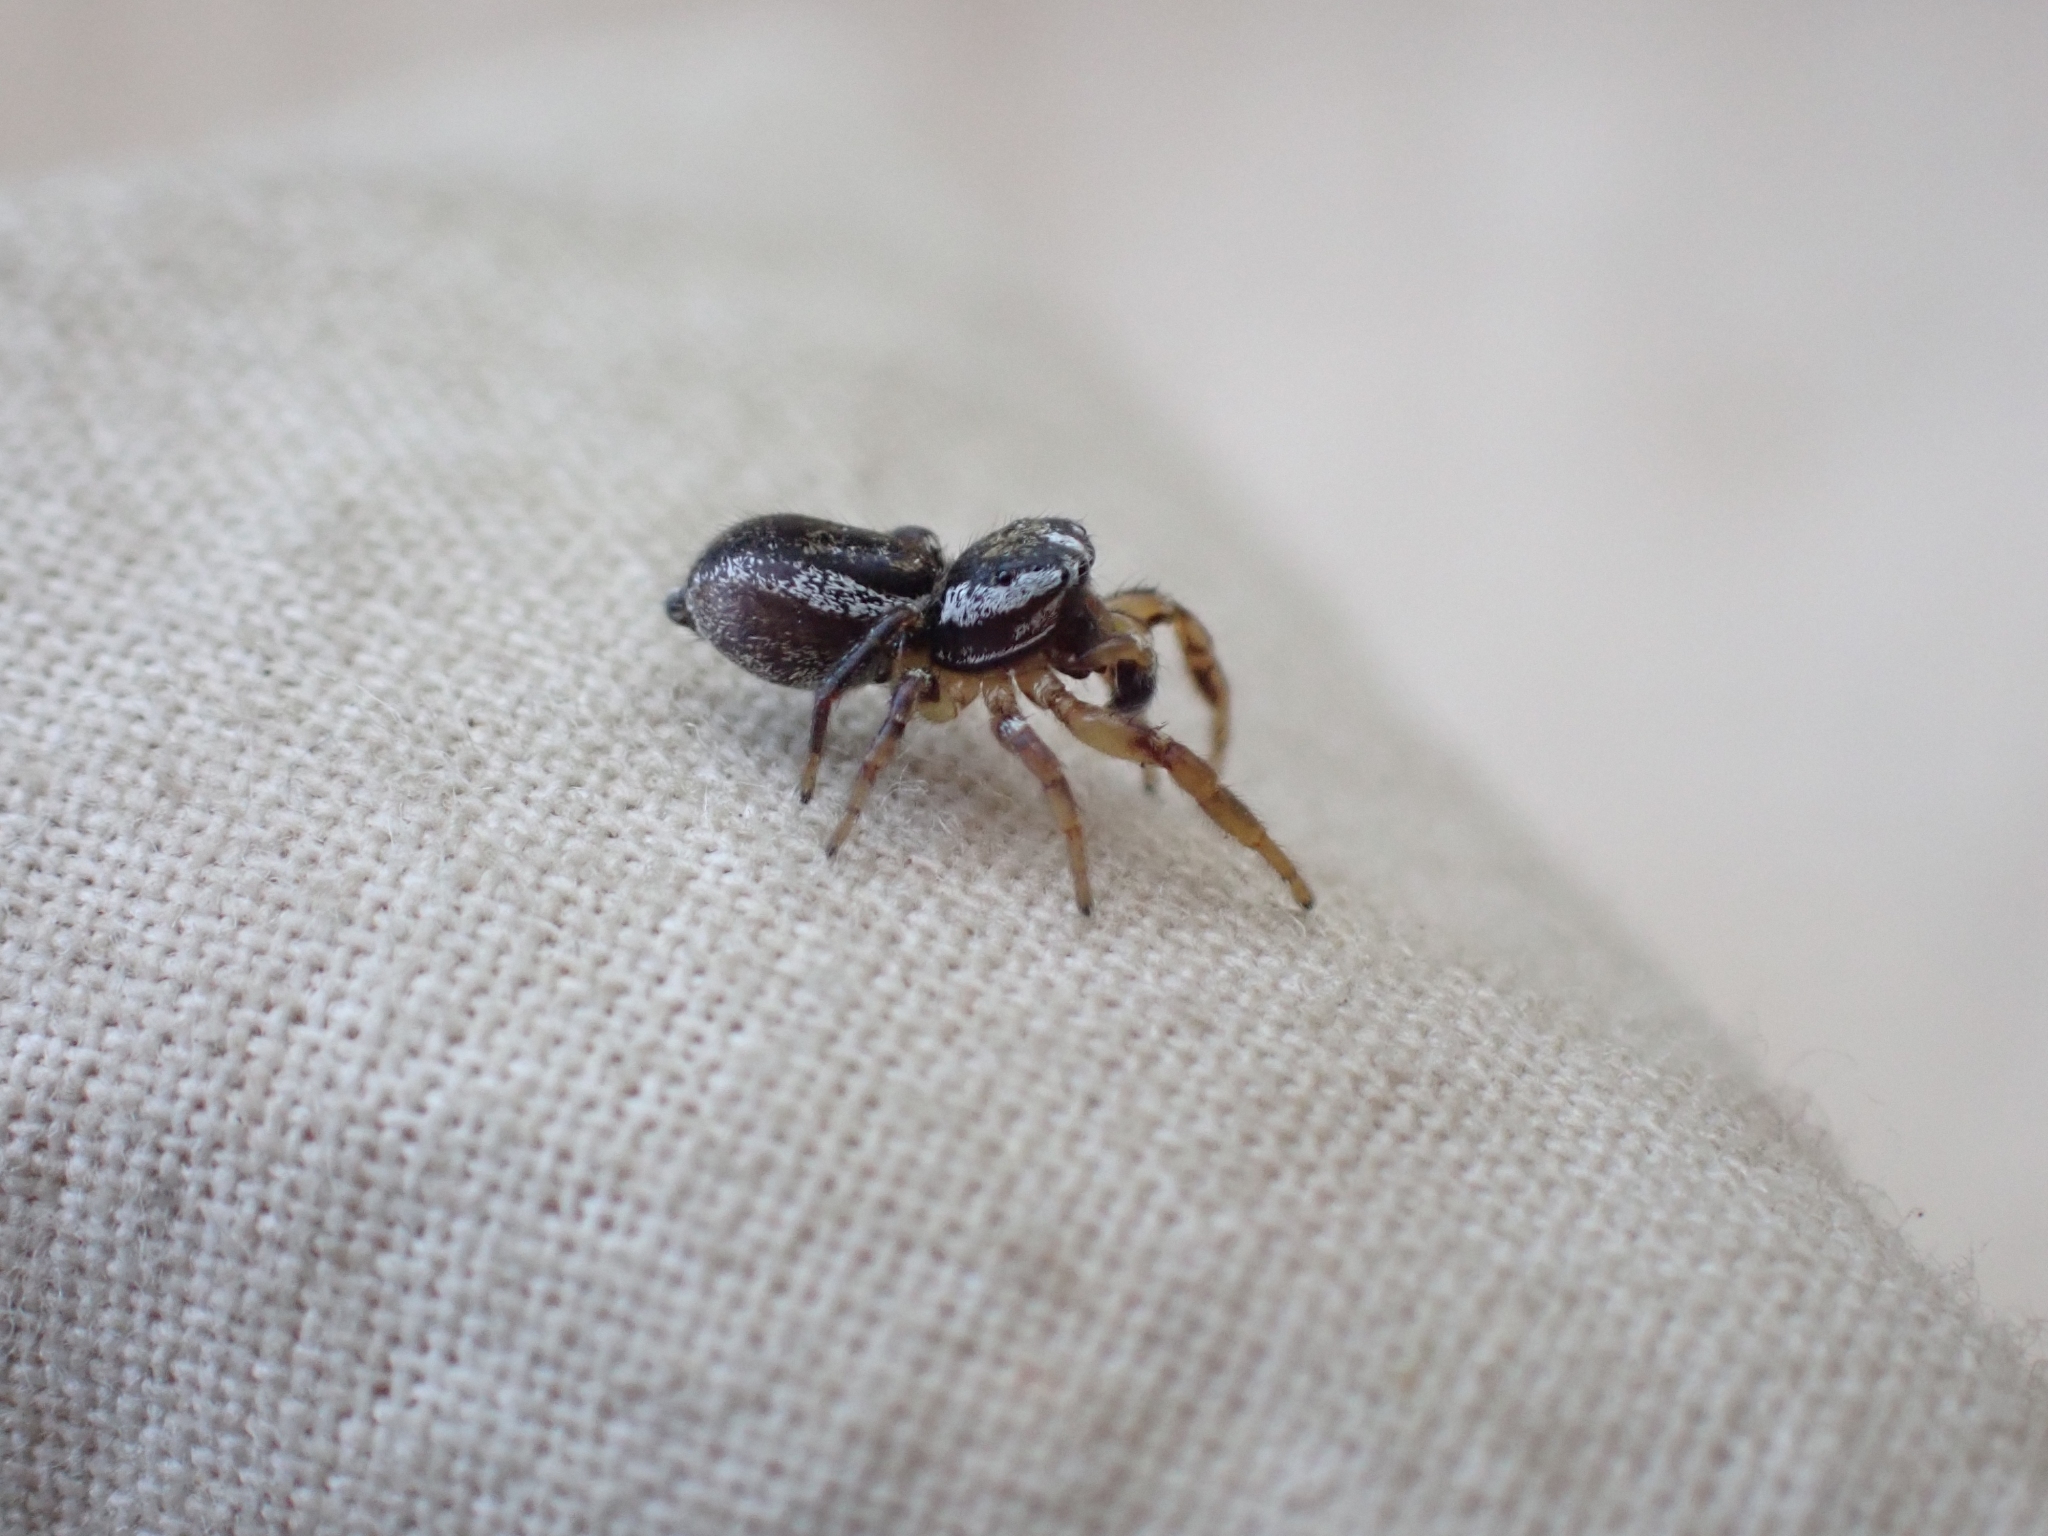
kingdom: Animalia
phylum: Arthropoda
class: Arachnida
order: Araneae
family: Salticidae
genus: Pelegrina
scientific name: Pelegrina flavipes
